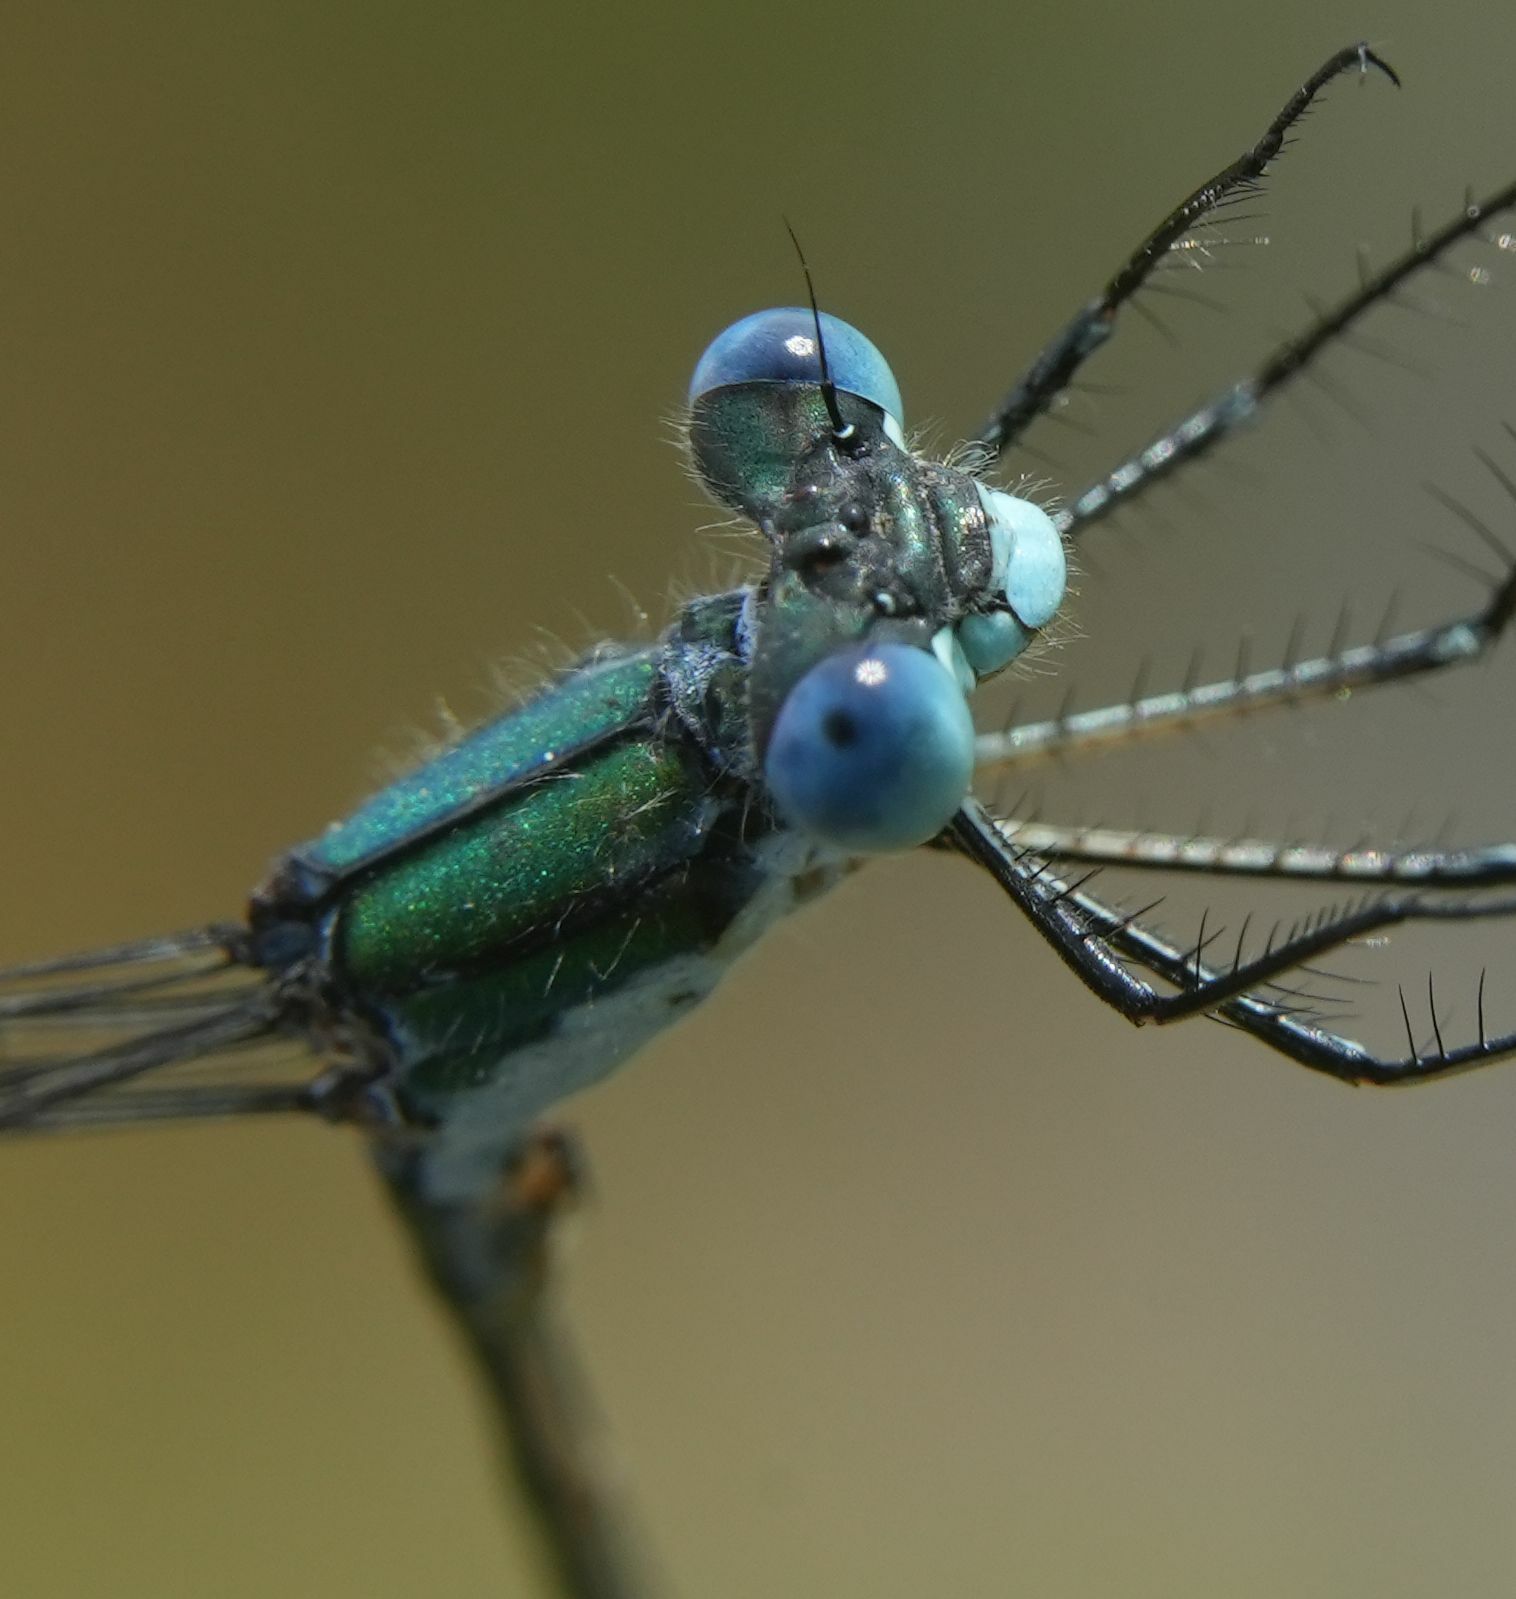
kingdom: Animalia
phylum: Arthropoda
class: Insecta
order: Odonata
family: Lestidae
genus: Lestes
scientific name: Lestes dryas
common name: Scarce emerald damselfly
